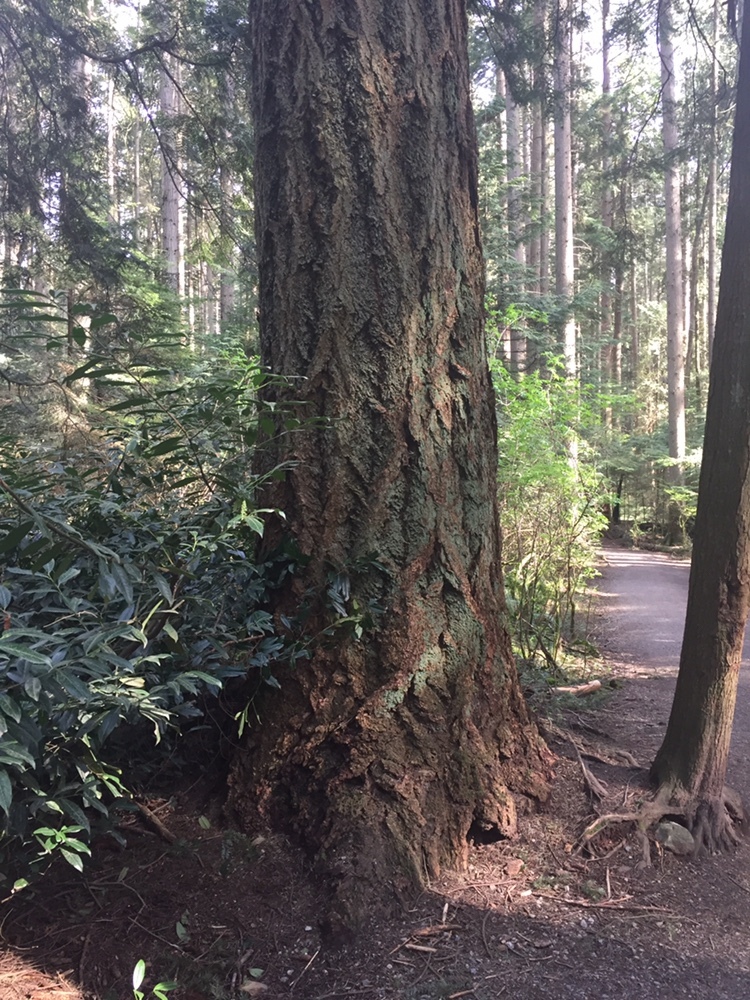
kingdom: Plantae
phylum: Tracheophyta
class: Pinopsida
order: Pinales
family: Pinaceae
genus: Pseudotsuga
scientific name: Pseudotsuga menziesii
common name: Douglas fir
